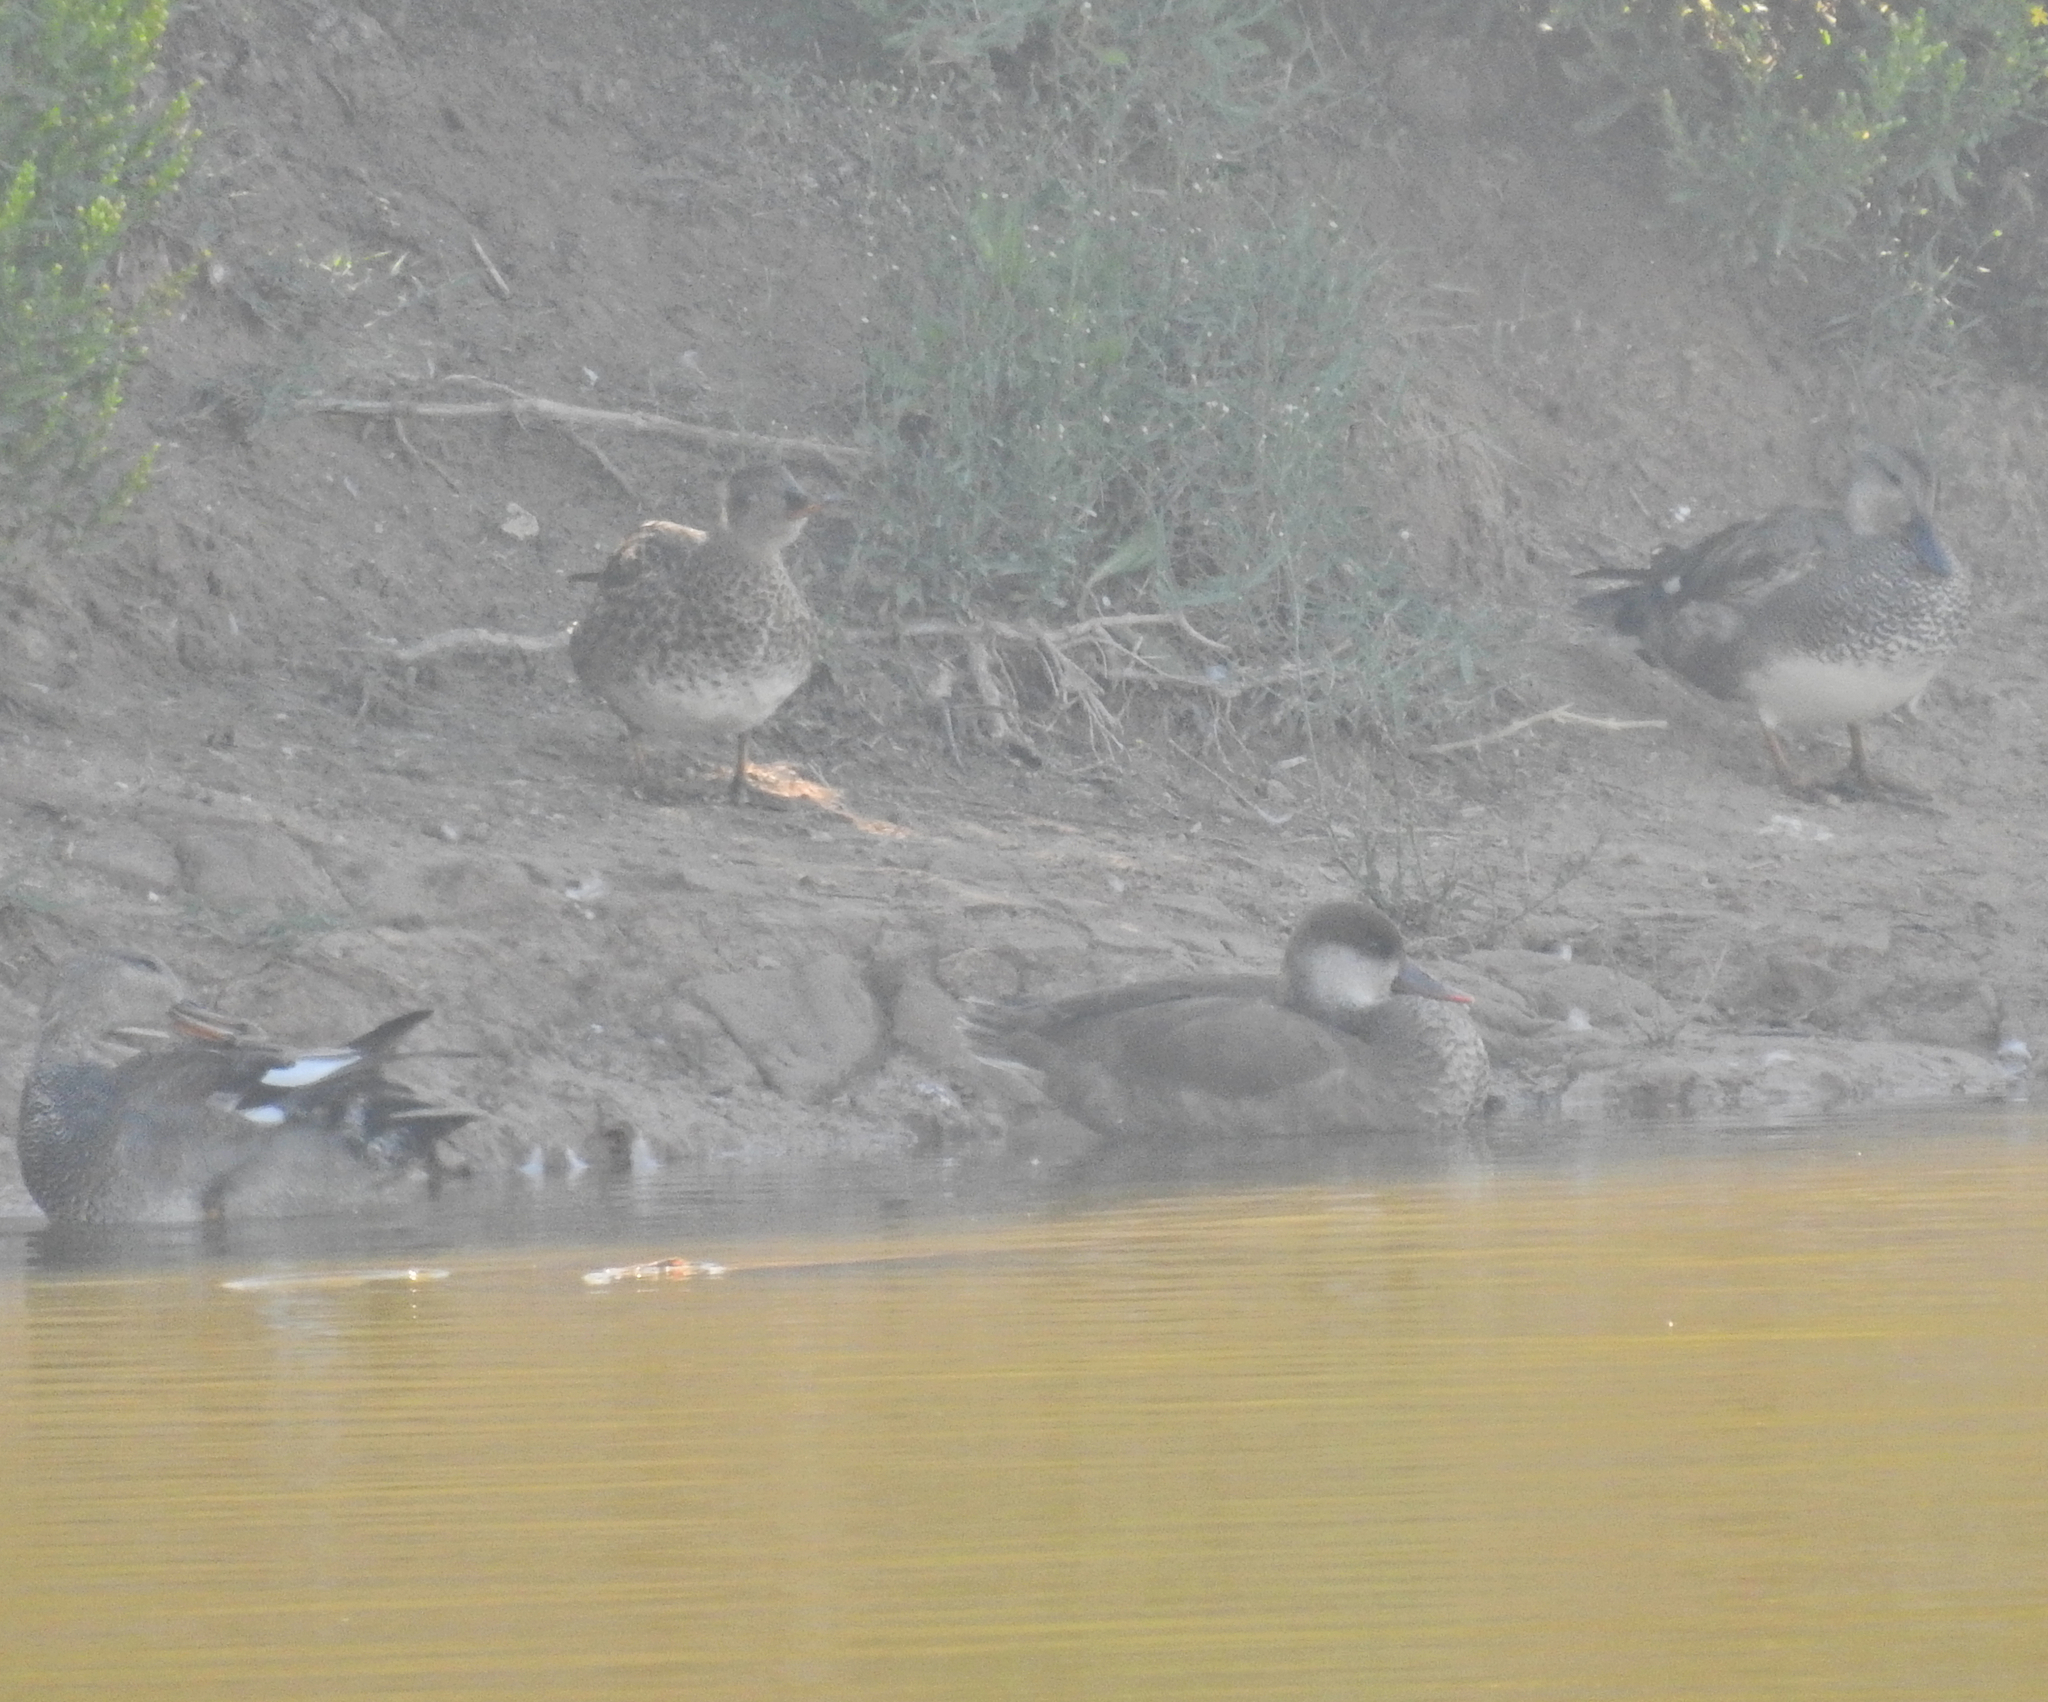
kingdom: Animalia
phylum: Chordata
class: Aves
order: Anseriformes
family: Anatidae
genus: Netta
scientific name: Netta rufina
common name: Red-crested pochard
